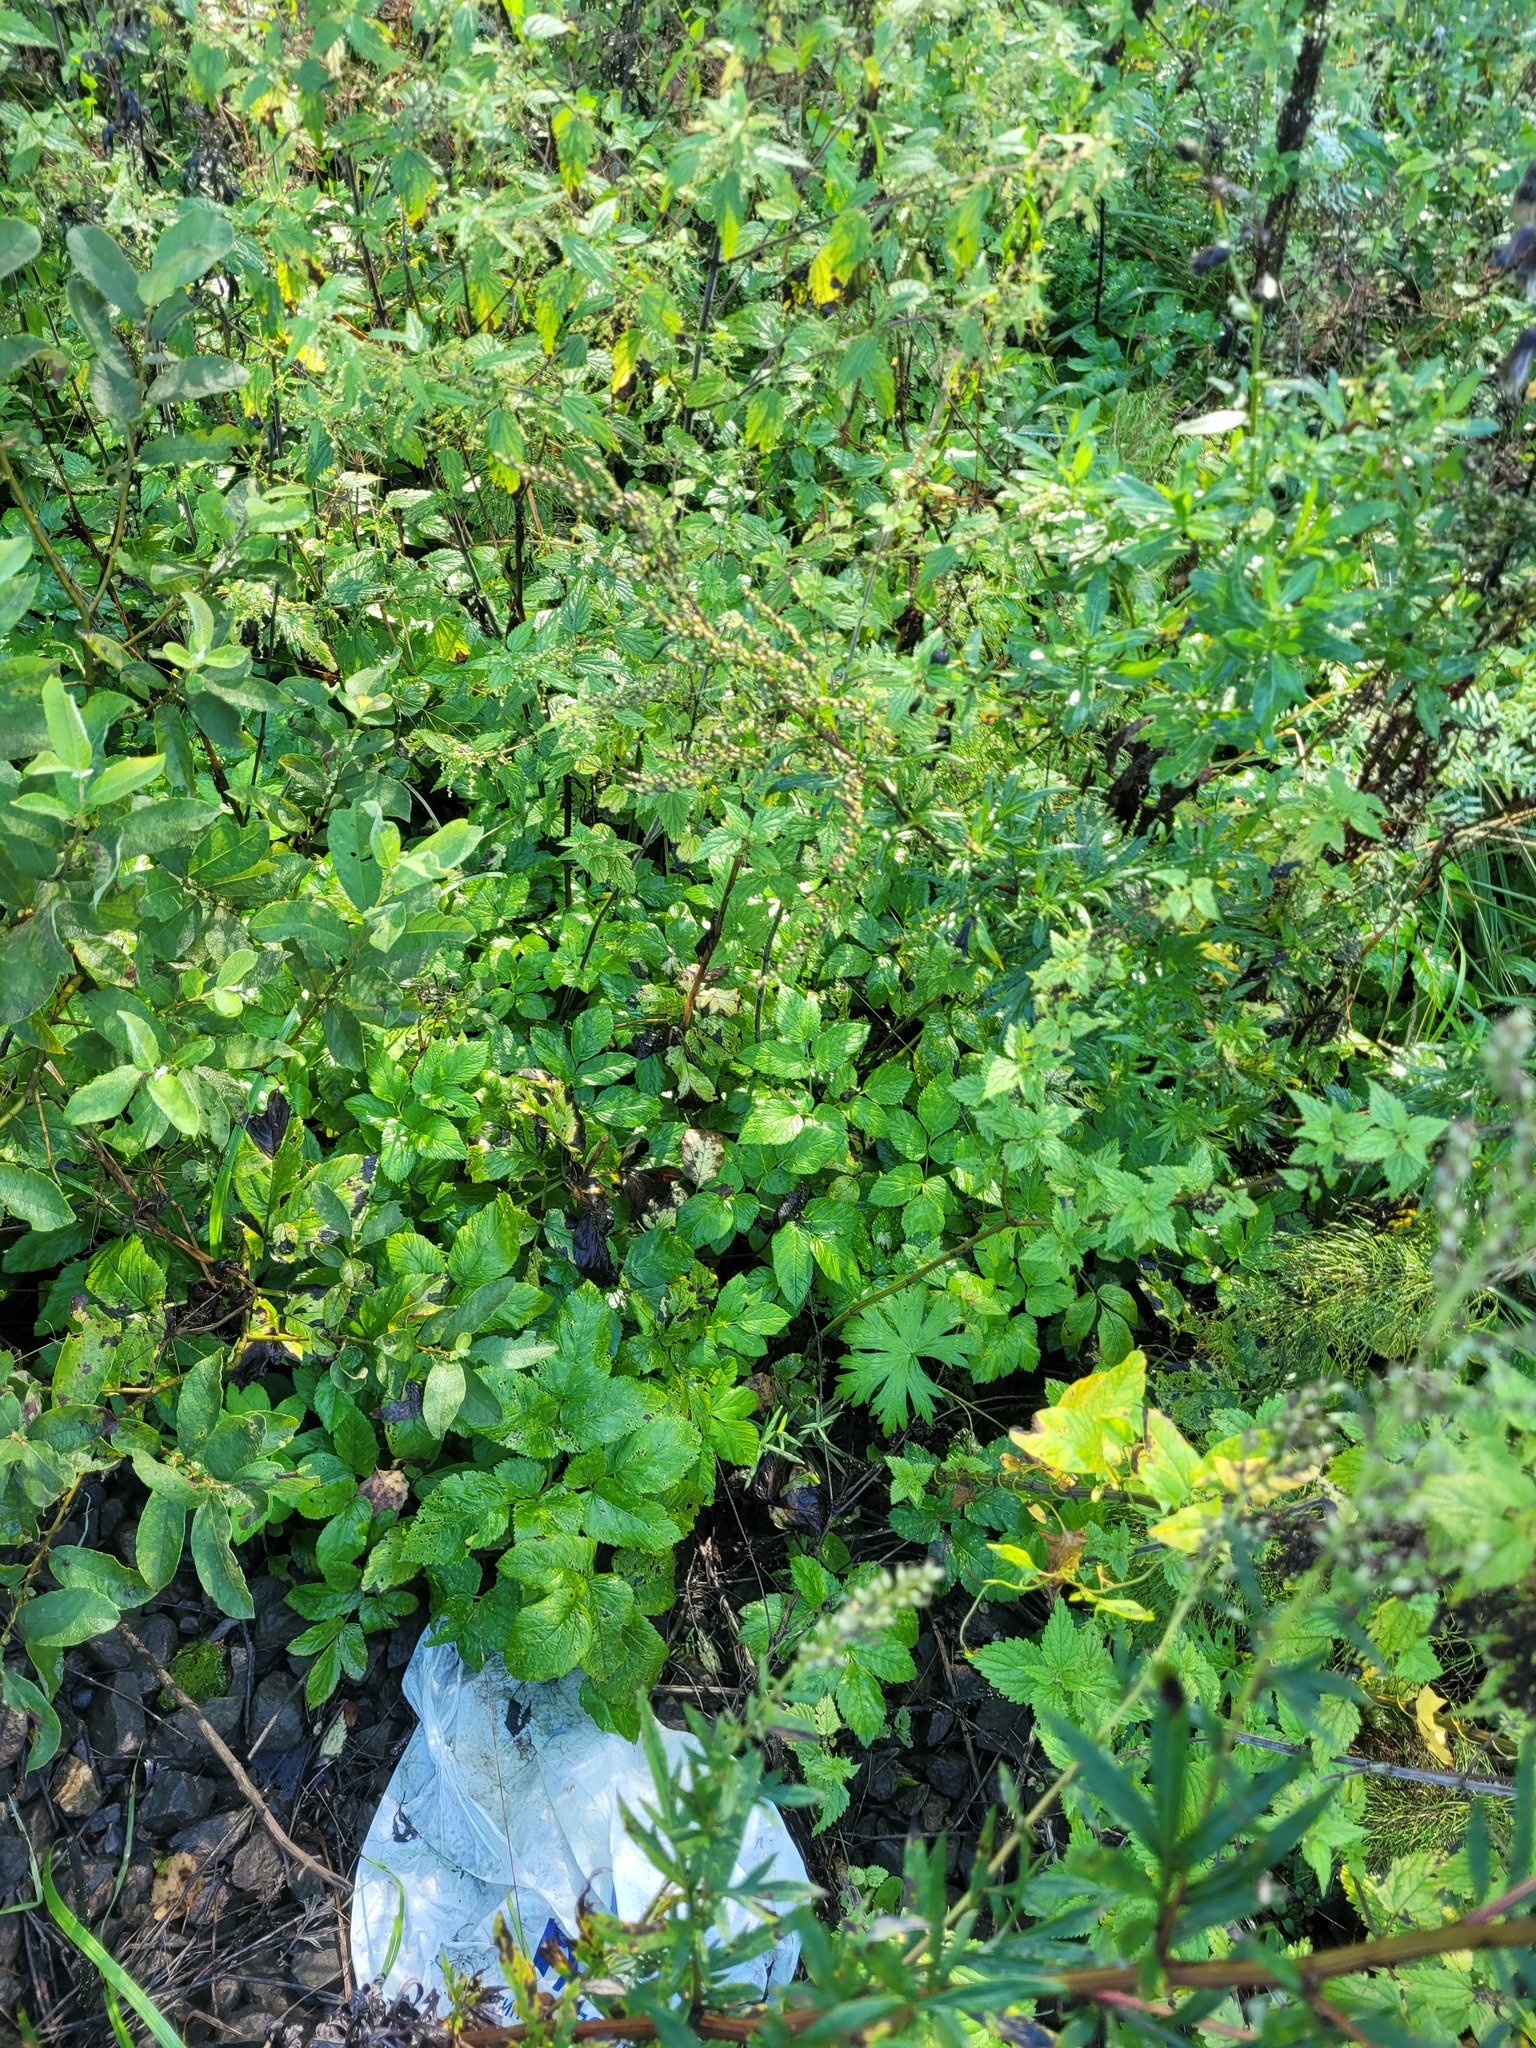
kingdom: Plantae
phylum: Tracheophyta
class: Magnoliopsida
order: Apiales
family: Apiaceae
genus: Aegopodium
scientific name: Aegopodium podagraria
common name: Ground-elder
